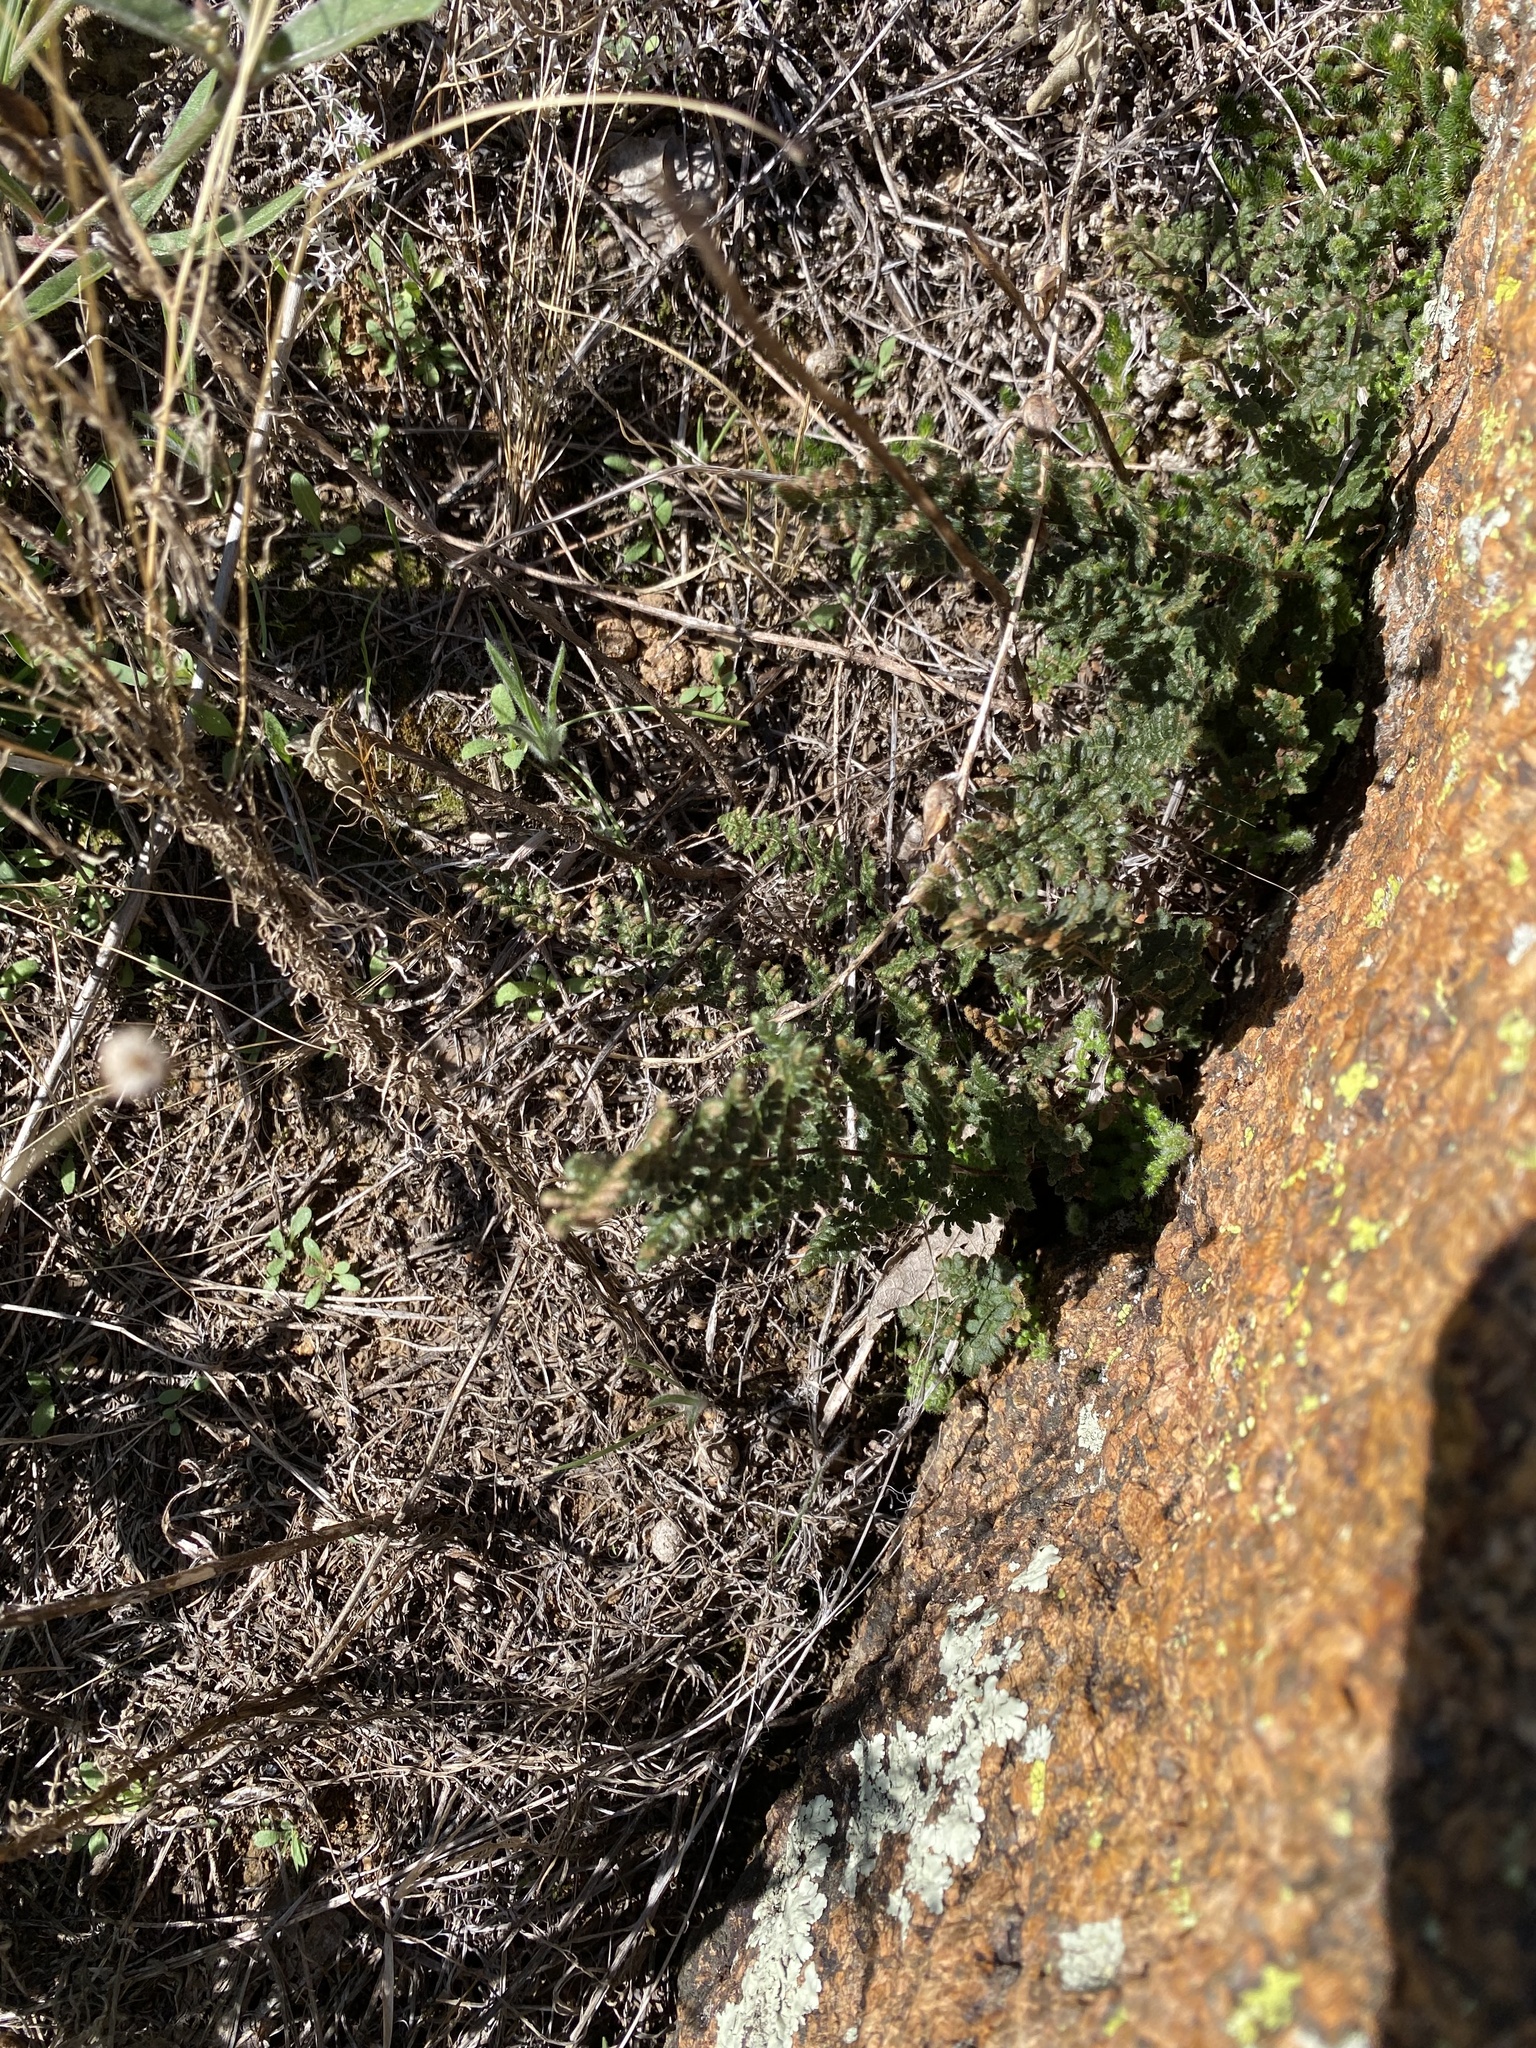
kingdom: Plantae
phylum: Tracheophyta
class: Polypodiopsida
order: Polypodiales
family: Pteridaceae
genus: Myriopteris
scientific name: Myriopteris lanosa
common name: Hairy lip fern
